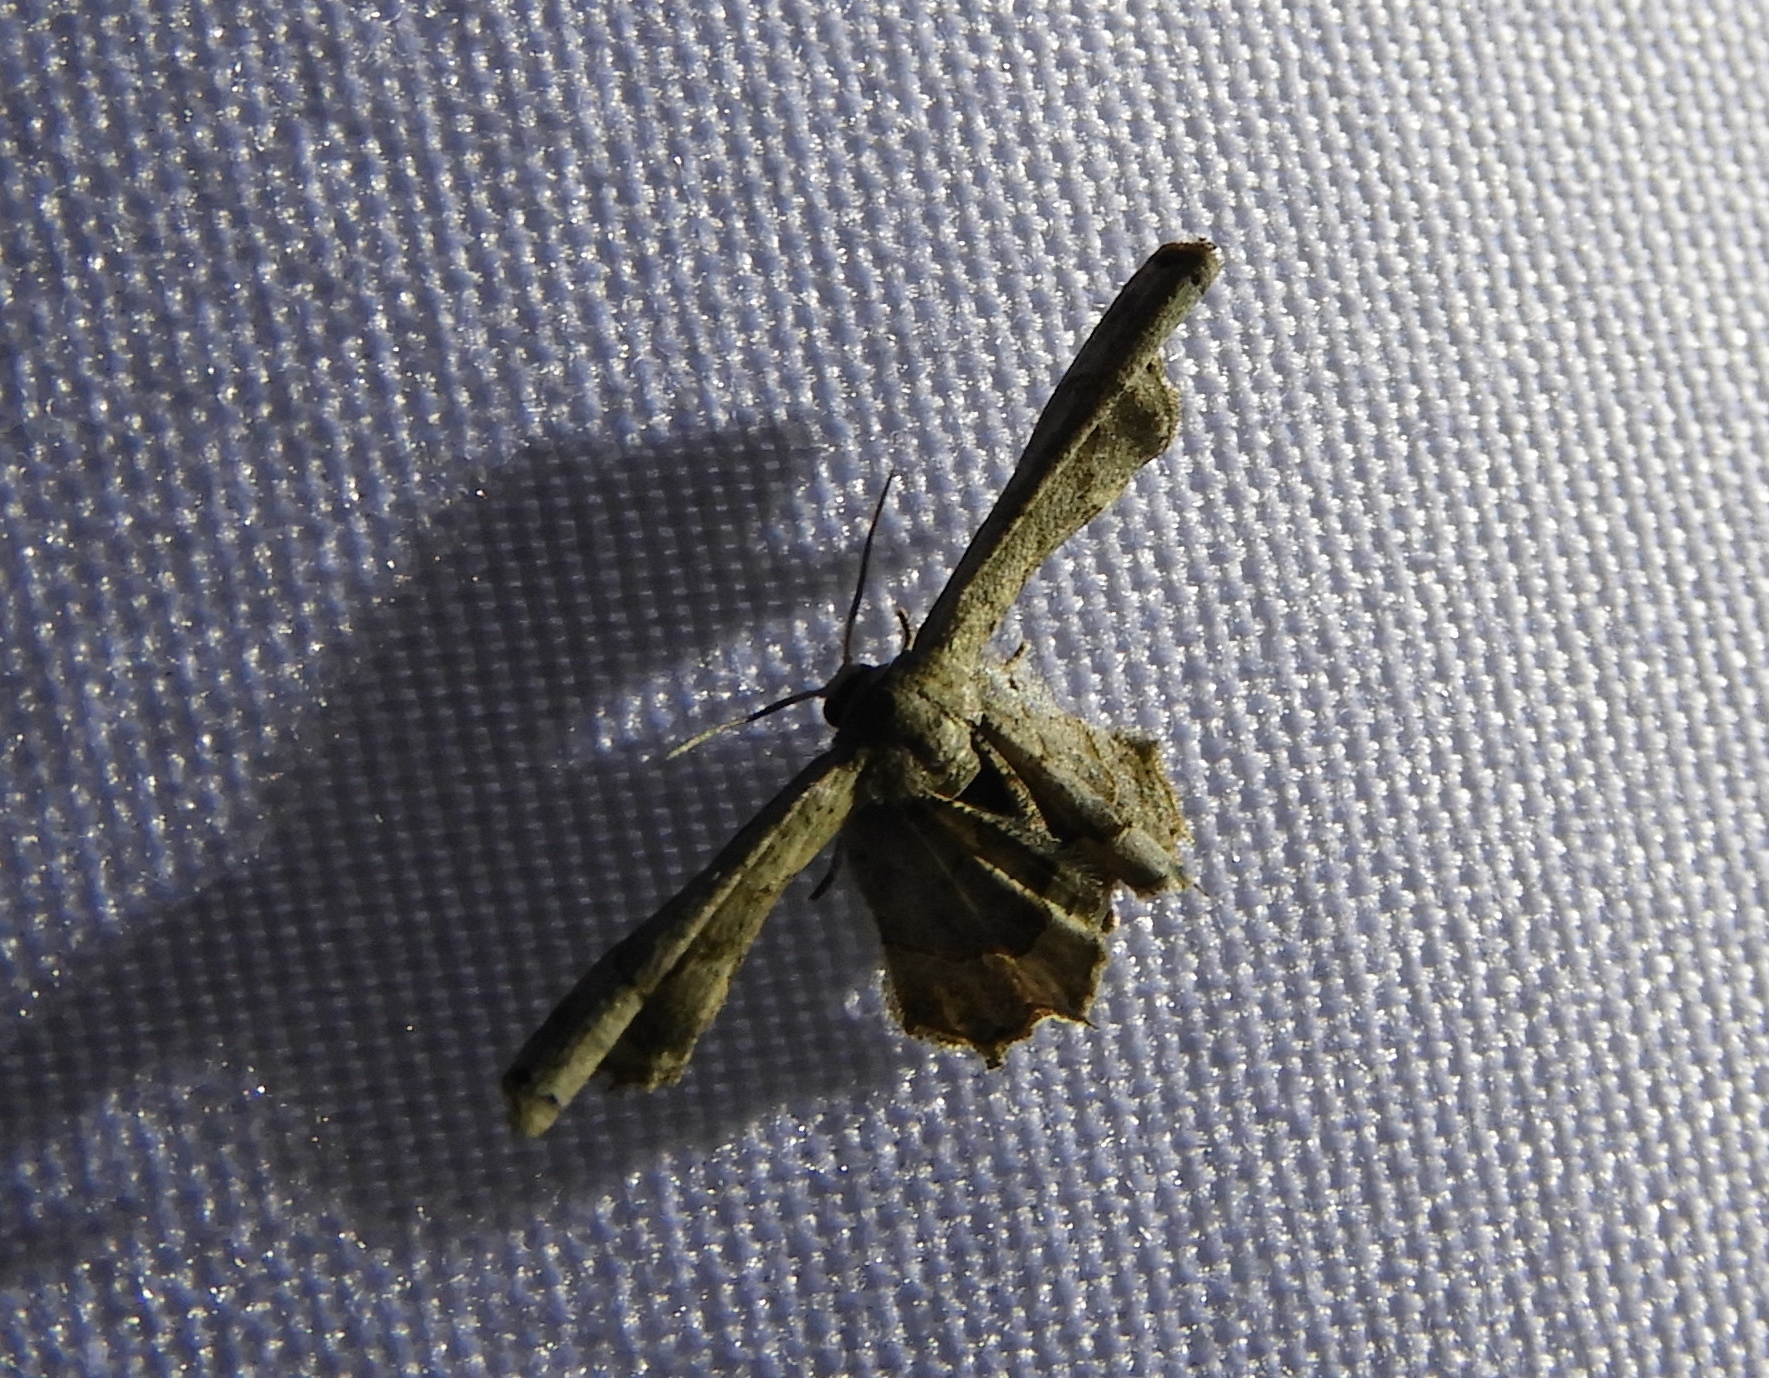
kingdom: Animalia
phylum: Arthropoda
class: Insecta
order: Lepidoptera
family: Uraniidae
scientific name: Uraniidae
